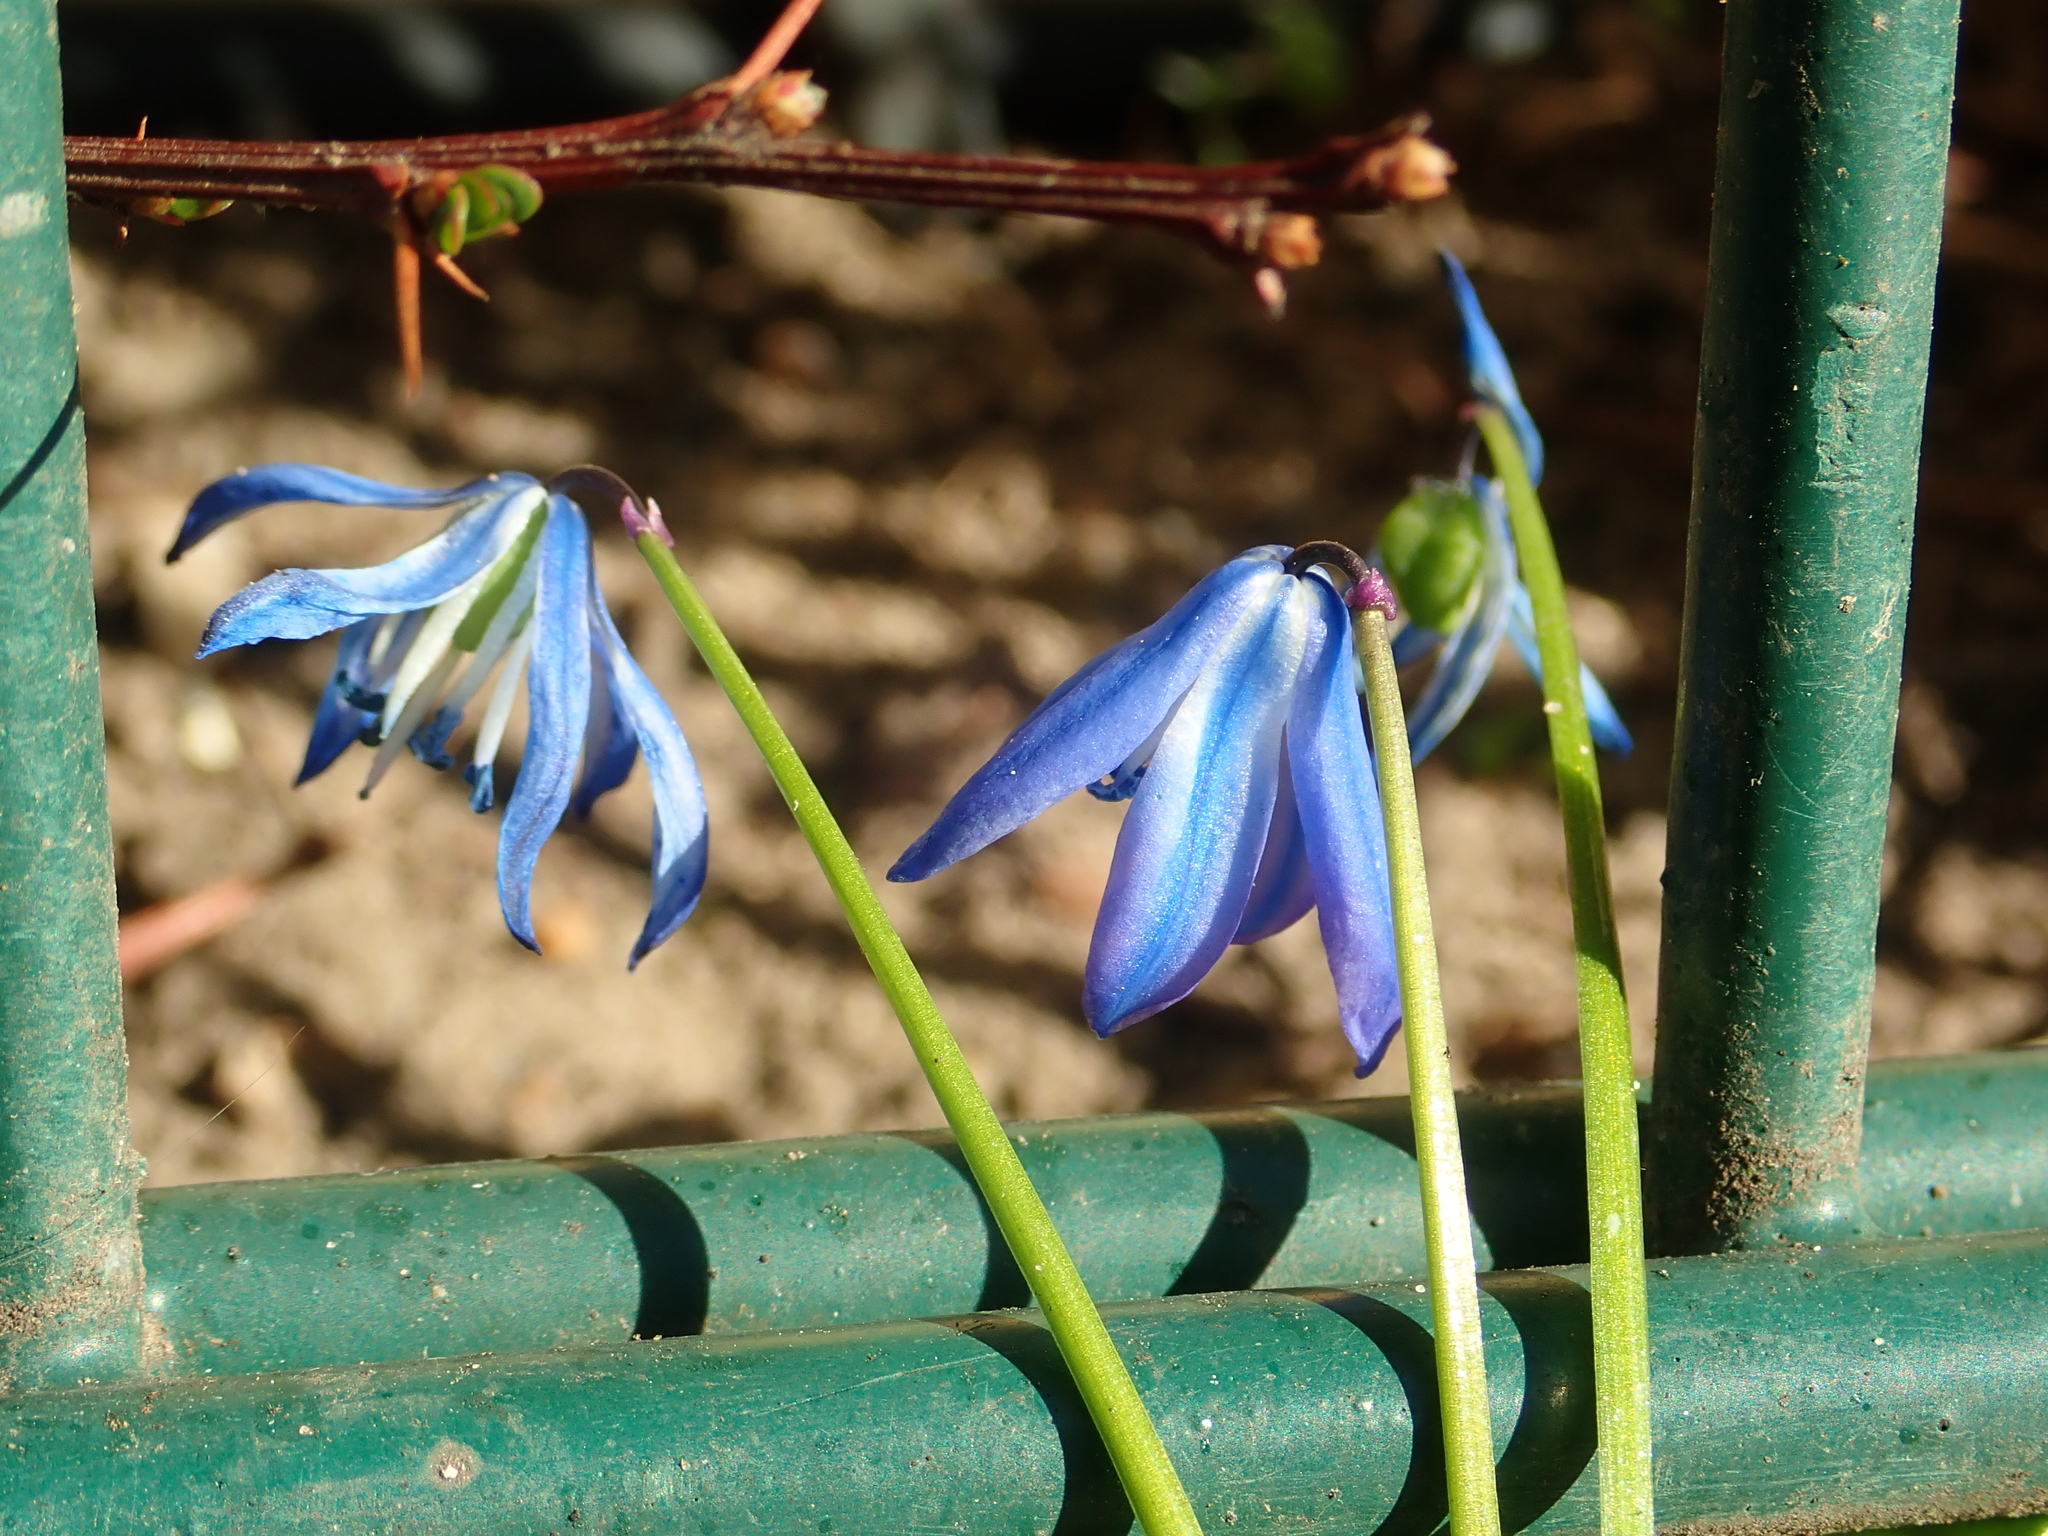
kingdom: Plantae
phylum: Tracheophyta
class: Liliopsida
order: Asparagales
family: Asparagaceae
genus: Scilla
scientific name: Scilla siberica
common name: Siberian squill
